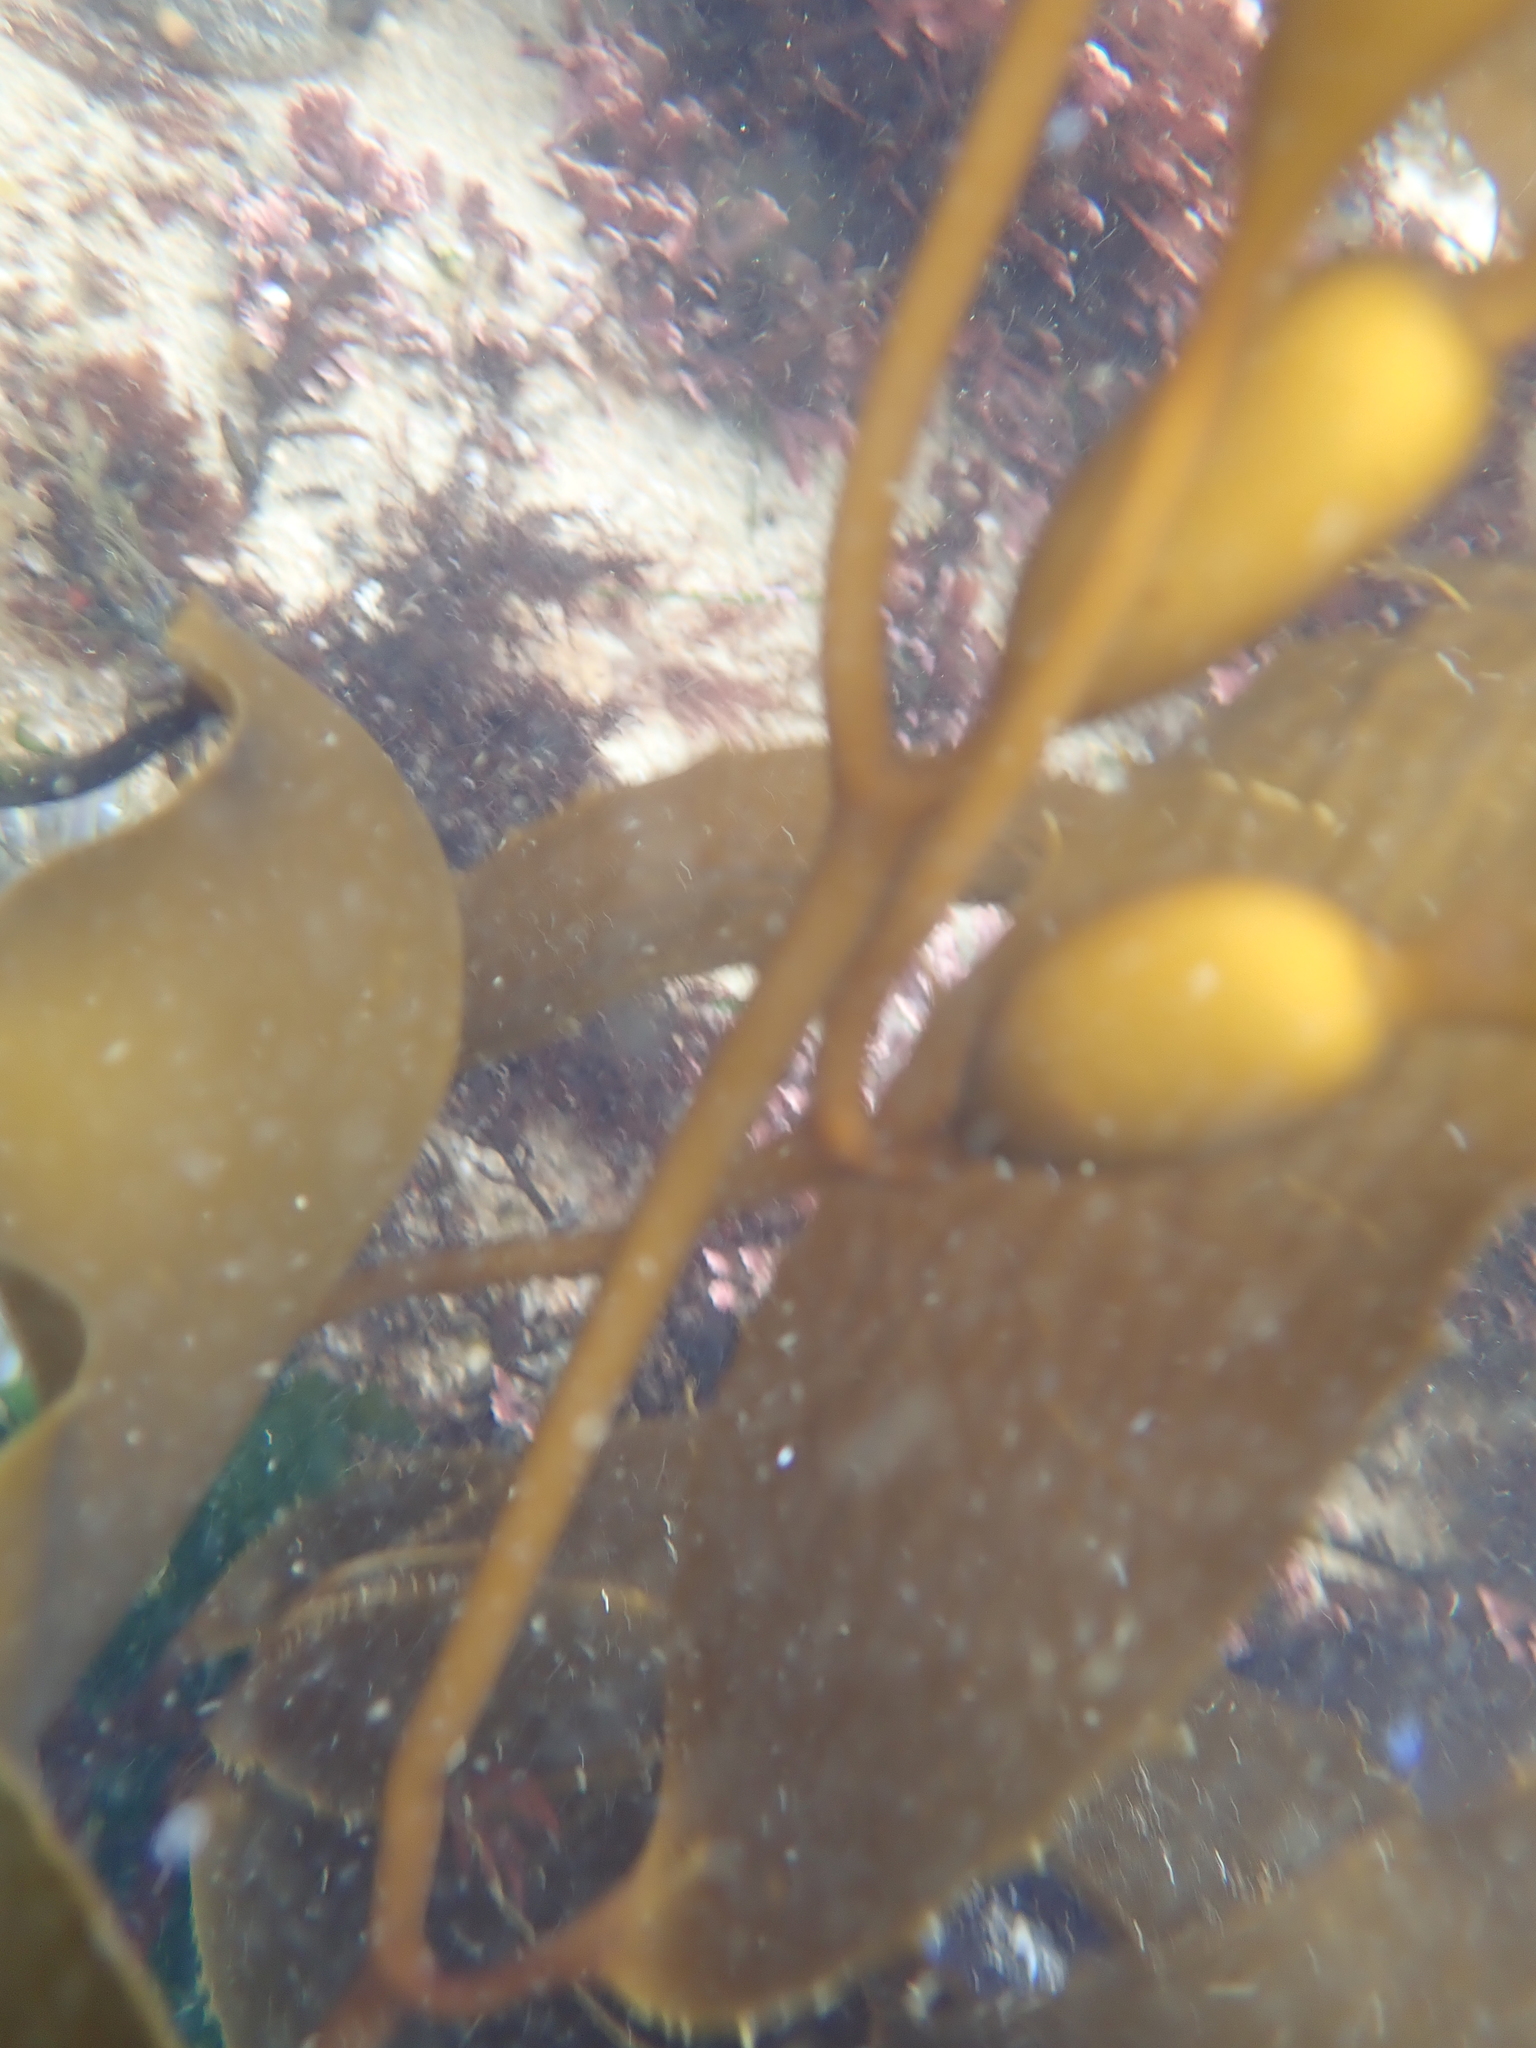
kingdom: Chromista
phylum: Ochrophyta
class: Phaeophyceae
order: Laminariales
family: Laminariaceae
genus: Macrocystis
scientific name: Macrocystis pyrifera
